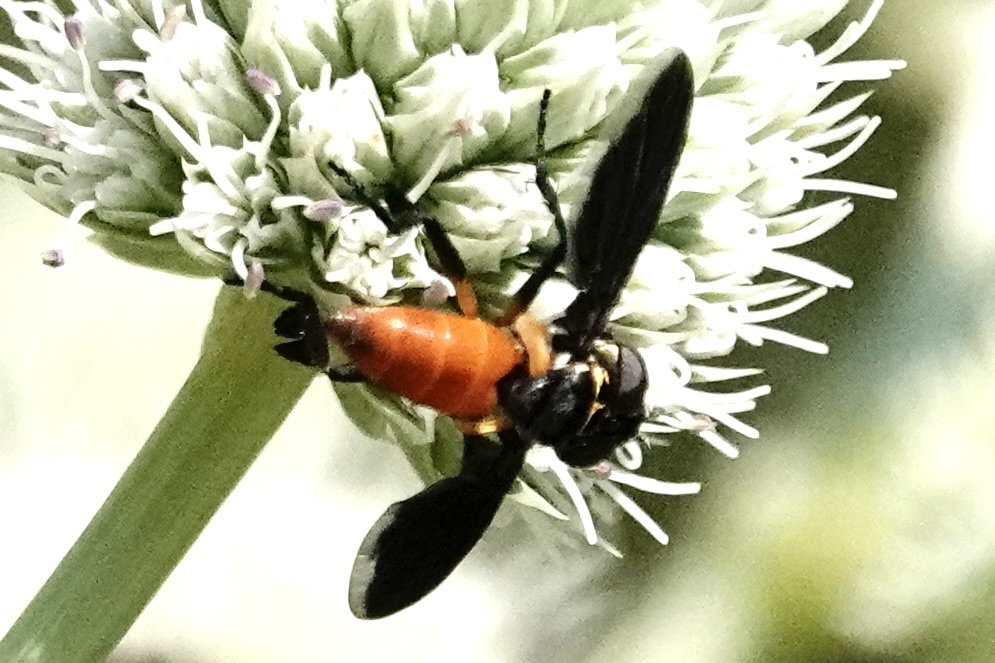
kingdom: Animalia
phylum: Arthropoda
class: Insecta
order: Diptera
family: Tachinidae
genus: Trichopoda
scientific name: Trichopoda pennipes
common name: Tachinid fly
